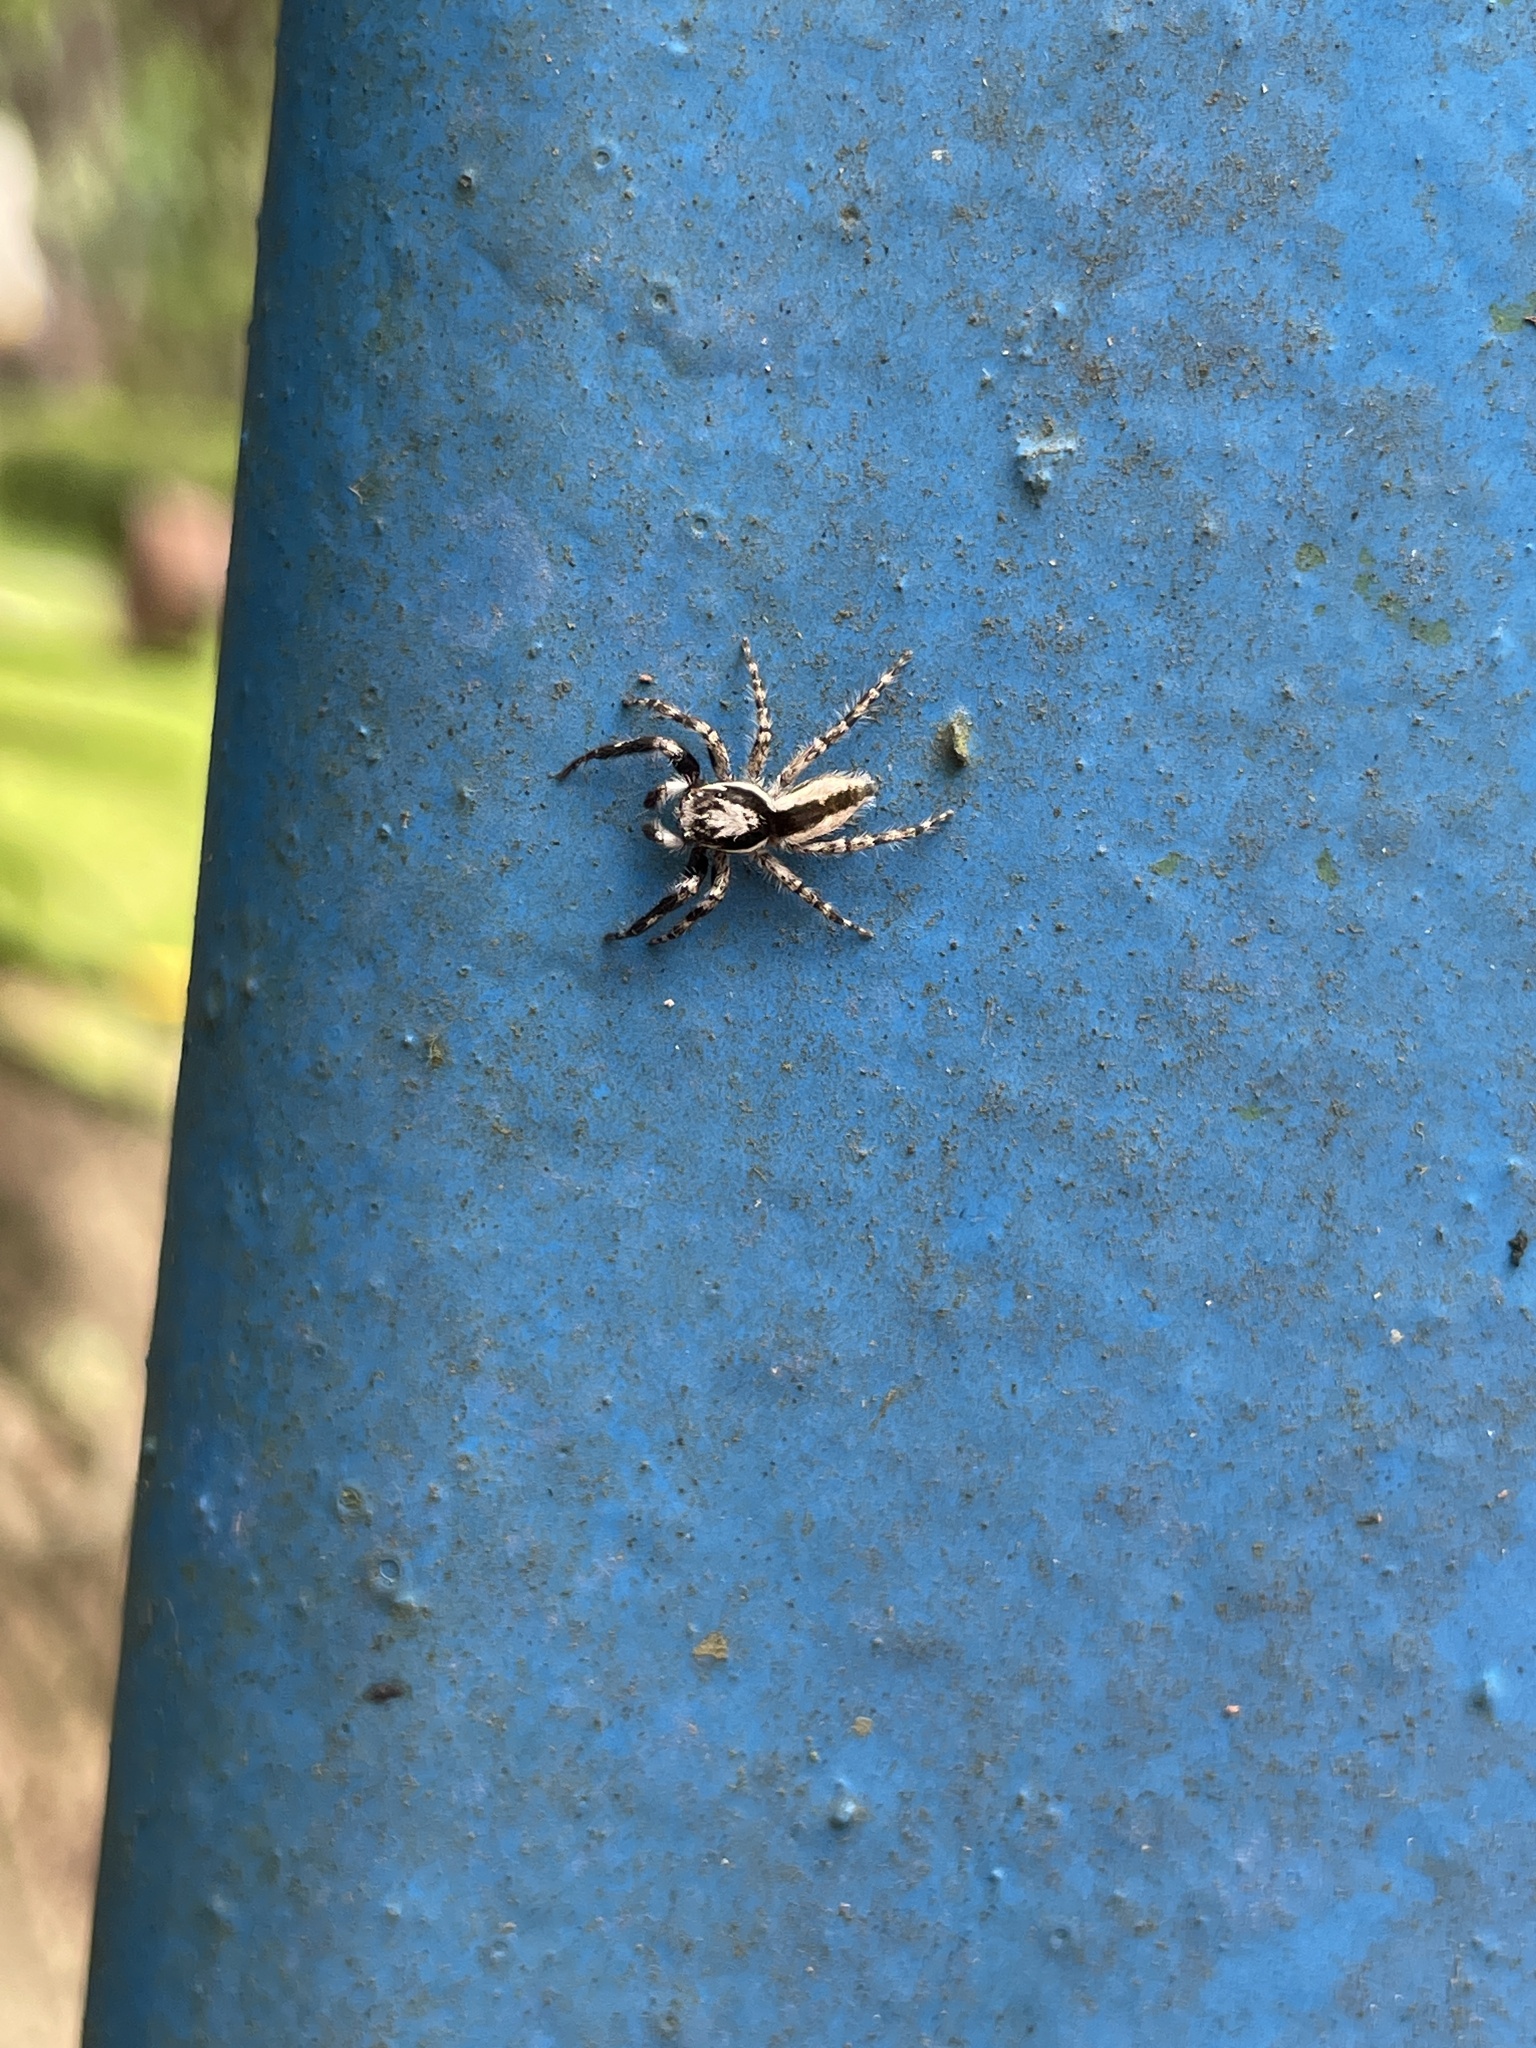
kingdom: Animalia
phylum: Arthropoda
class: Arachnida
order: Araneae
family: Salticidae
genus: Menemerus
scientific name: Menemerus bivittatus
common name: Gray wall jumper
